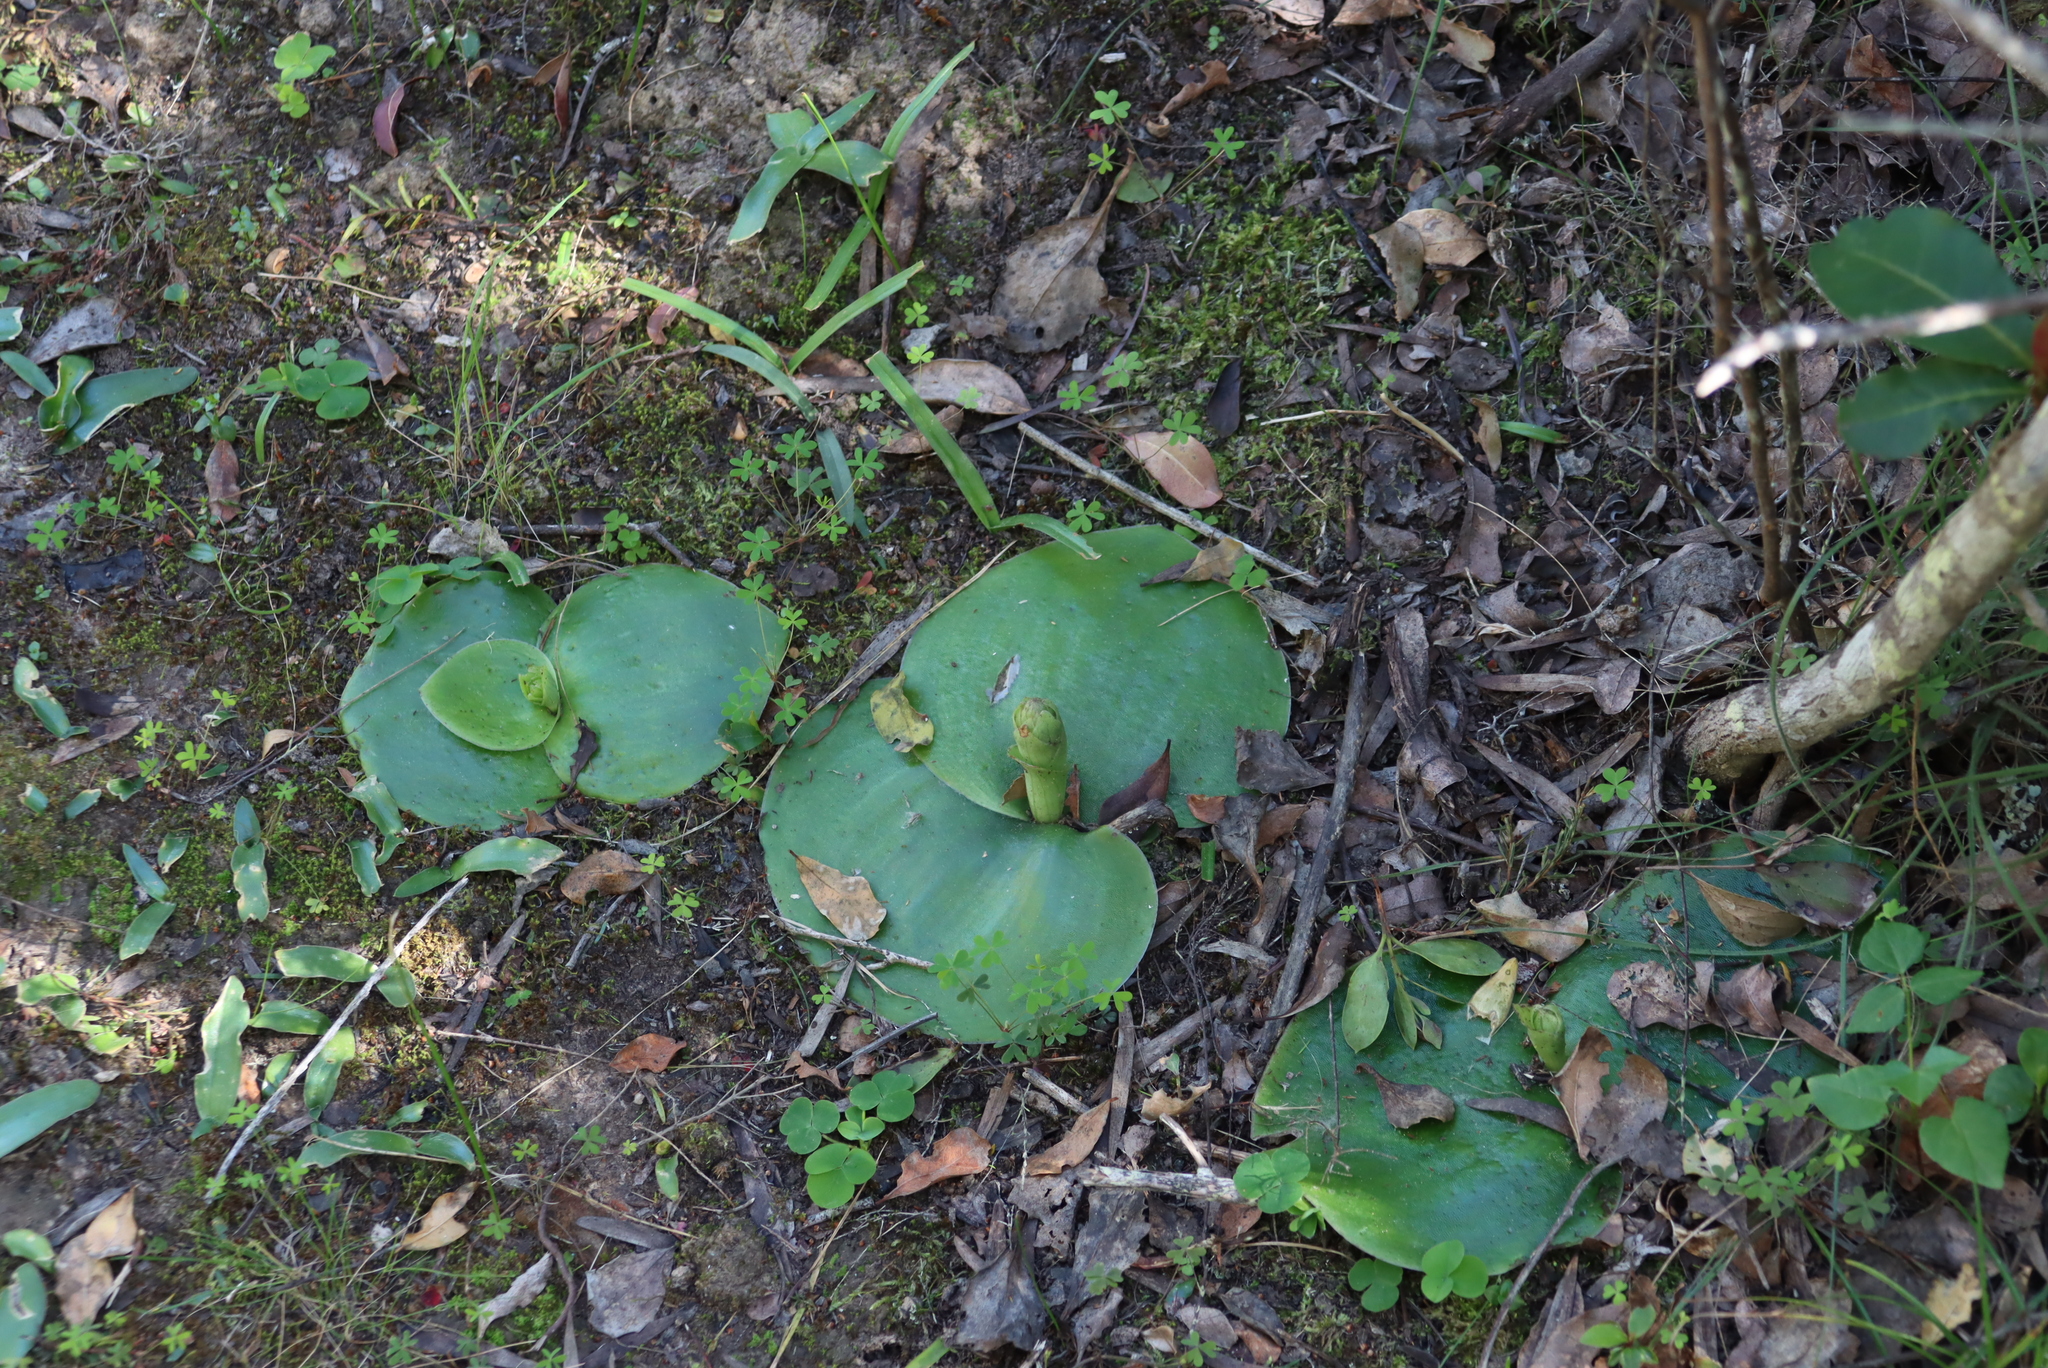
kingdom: Plantae
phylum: Tracheophyta
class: Liliopsida
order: Asparagales
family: Orchidaceae
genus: Satyrium
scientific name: Satyrium princeps
